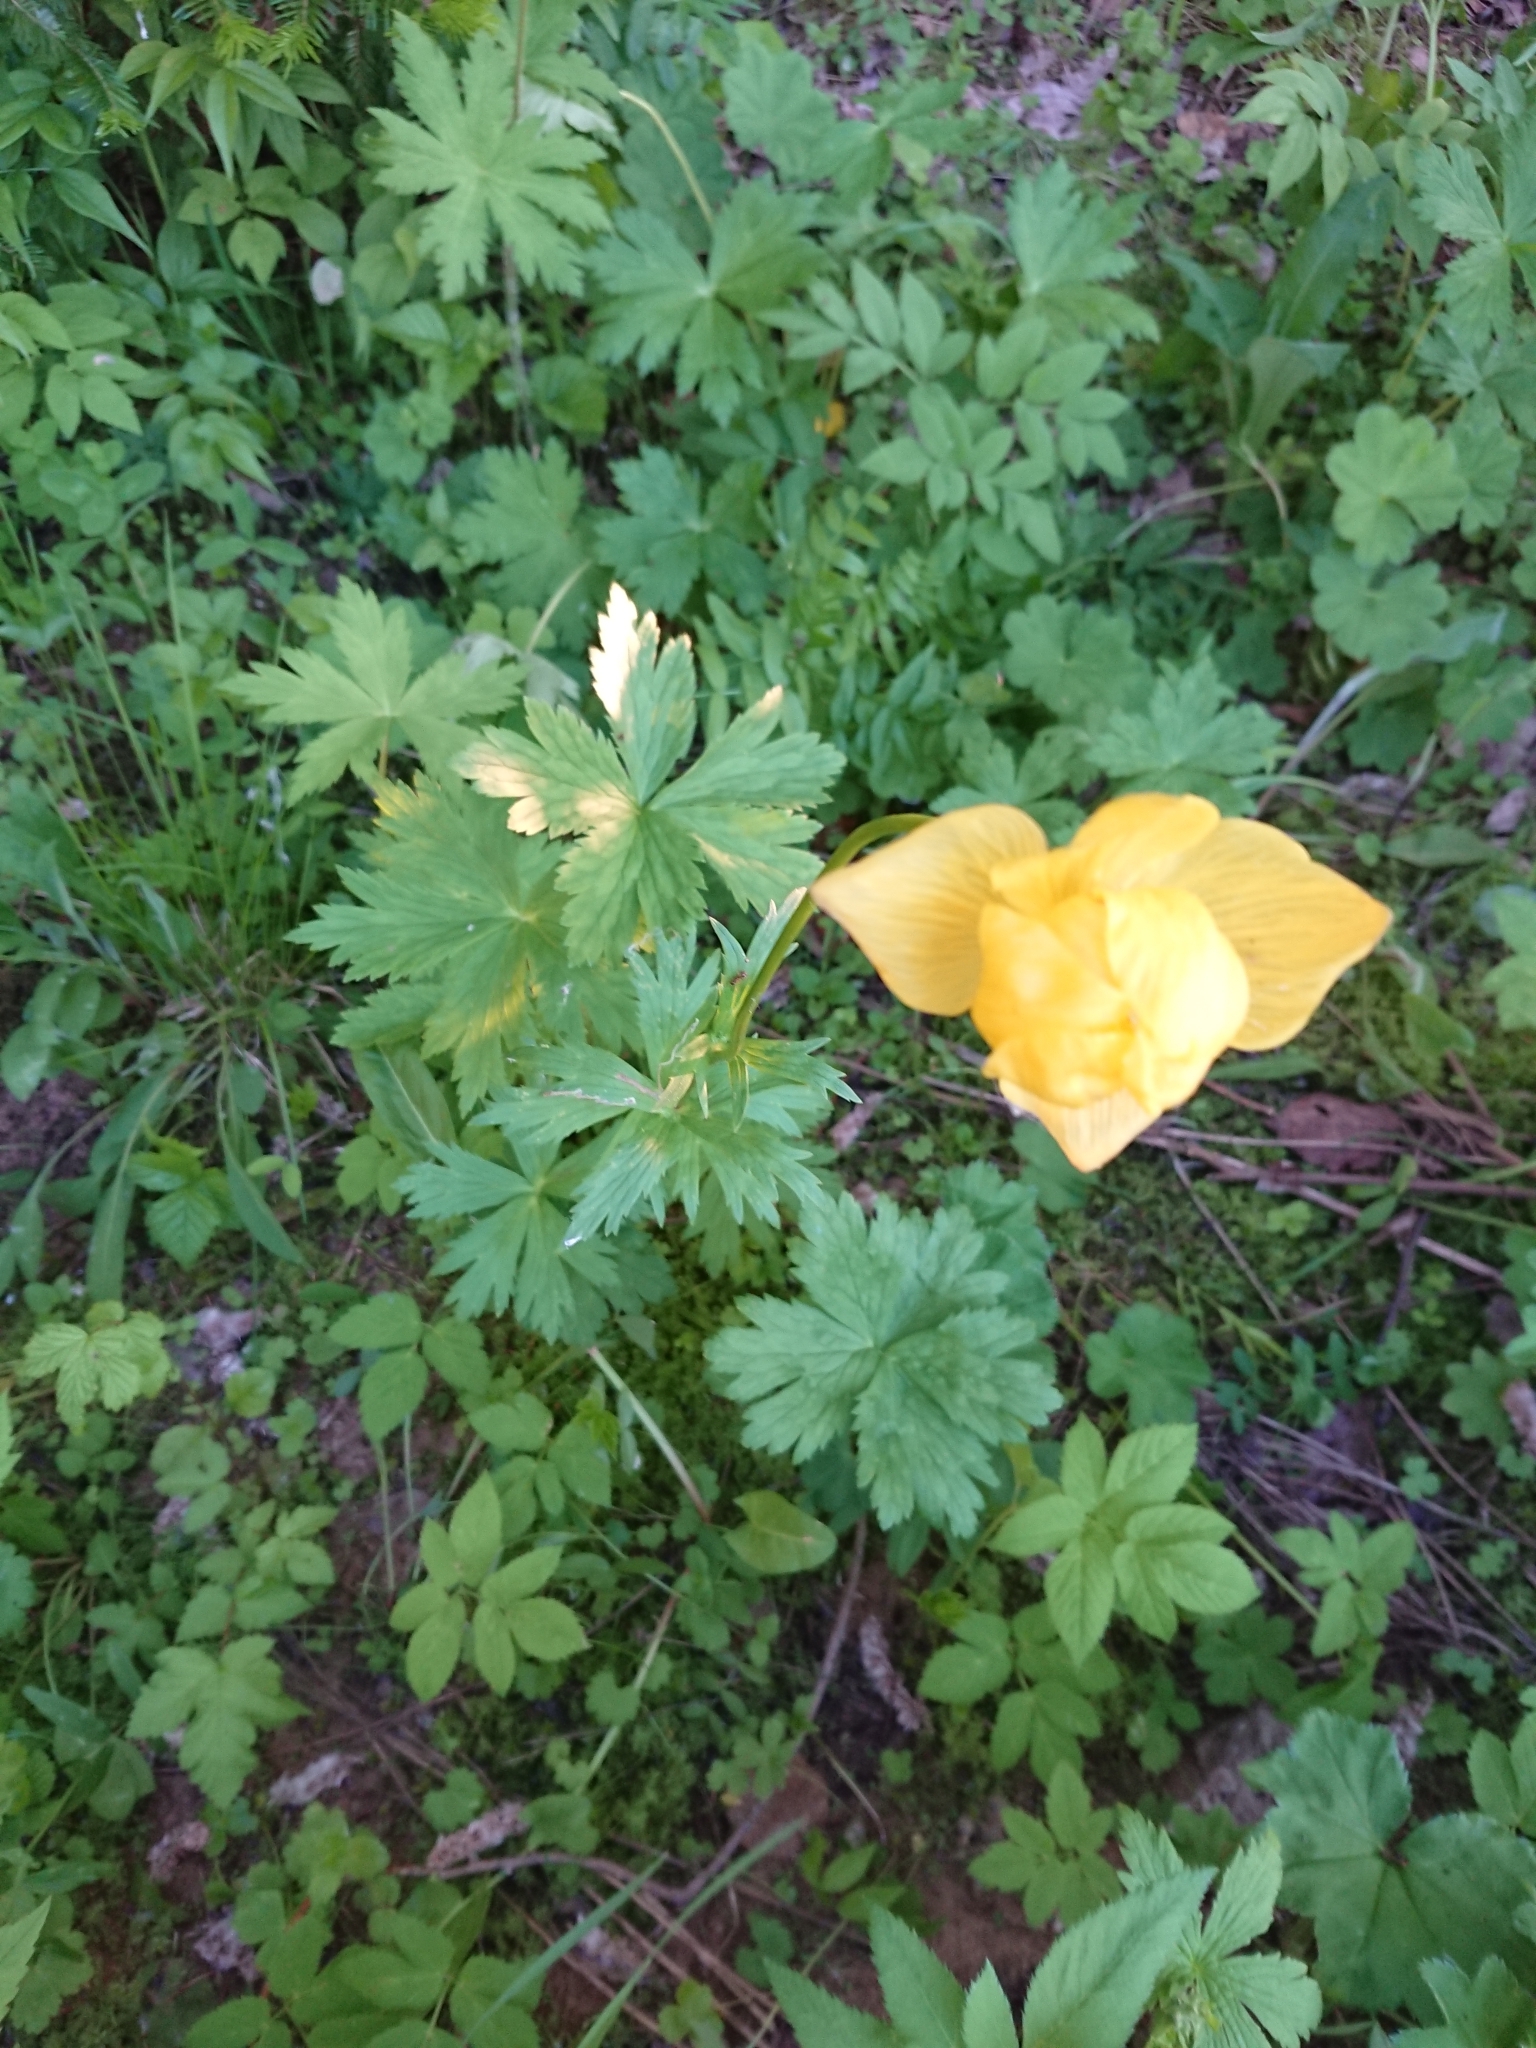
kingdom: Plantae
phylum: Tracheophyta
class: Magnoliopsida
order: Ranunculales
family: Ranunculaceae
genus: Trollius
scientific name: Trollius europaeus
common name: European globeflower
